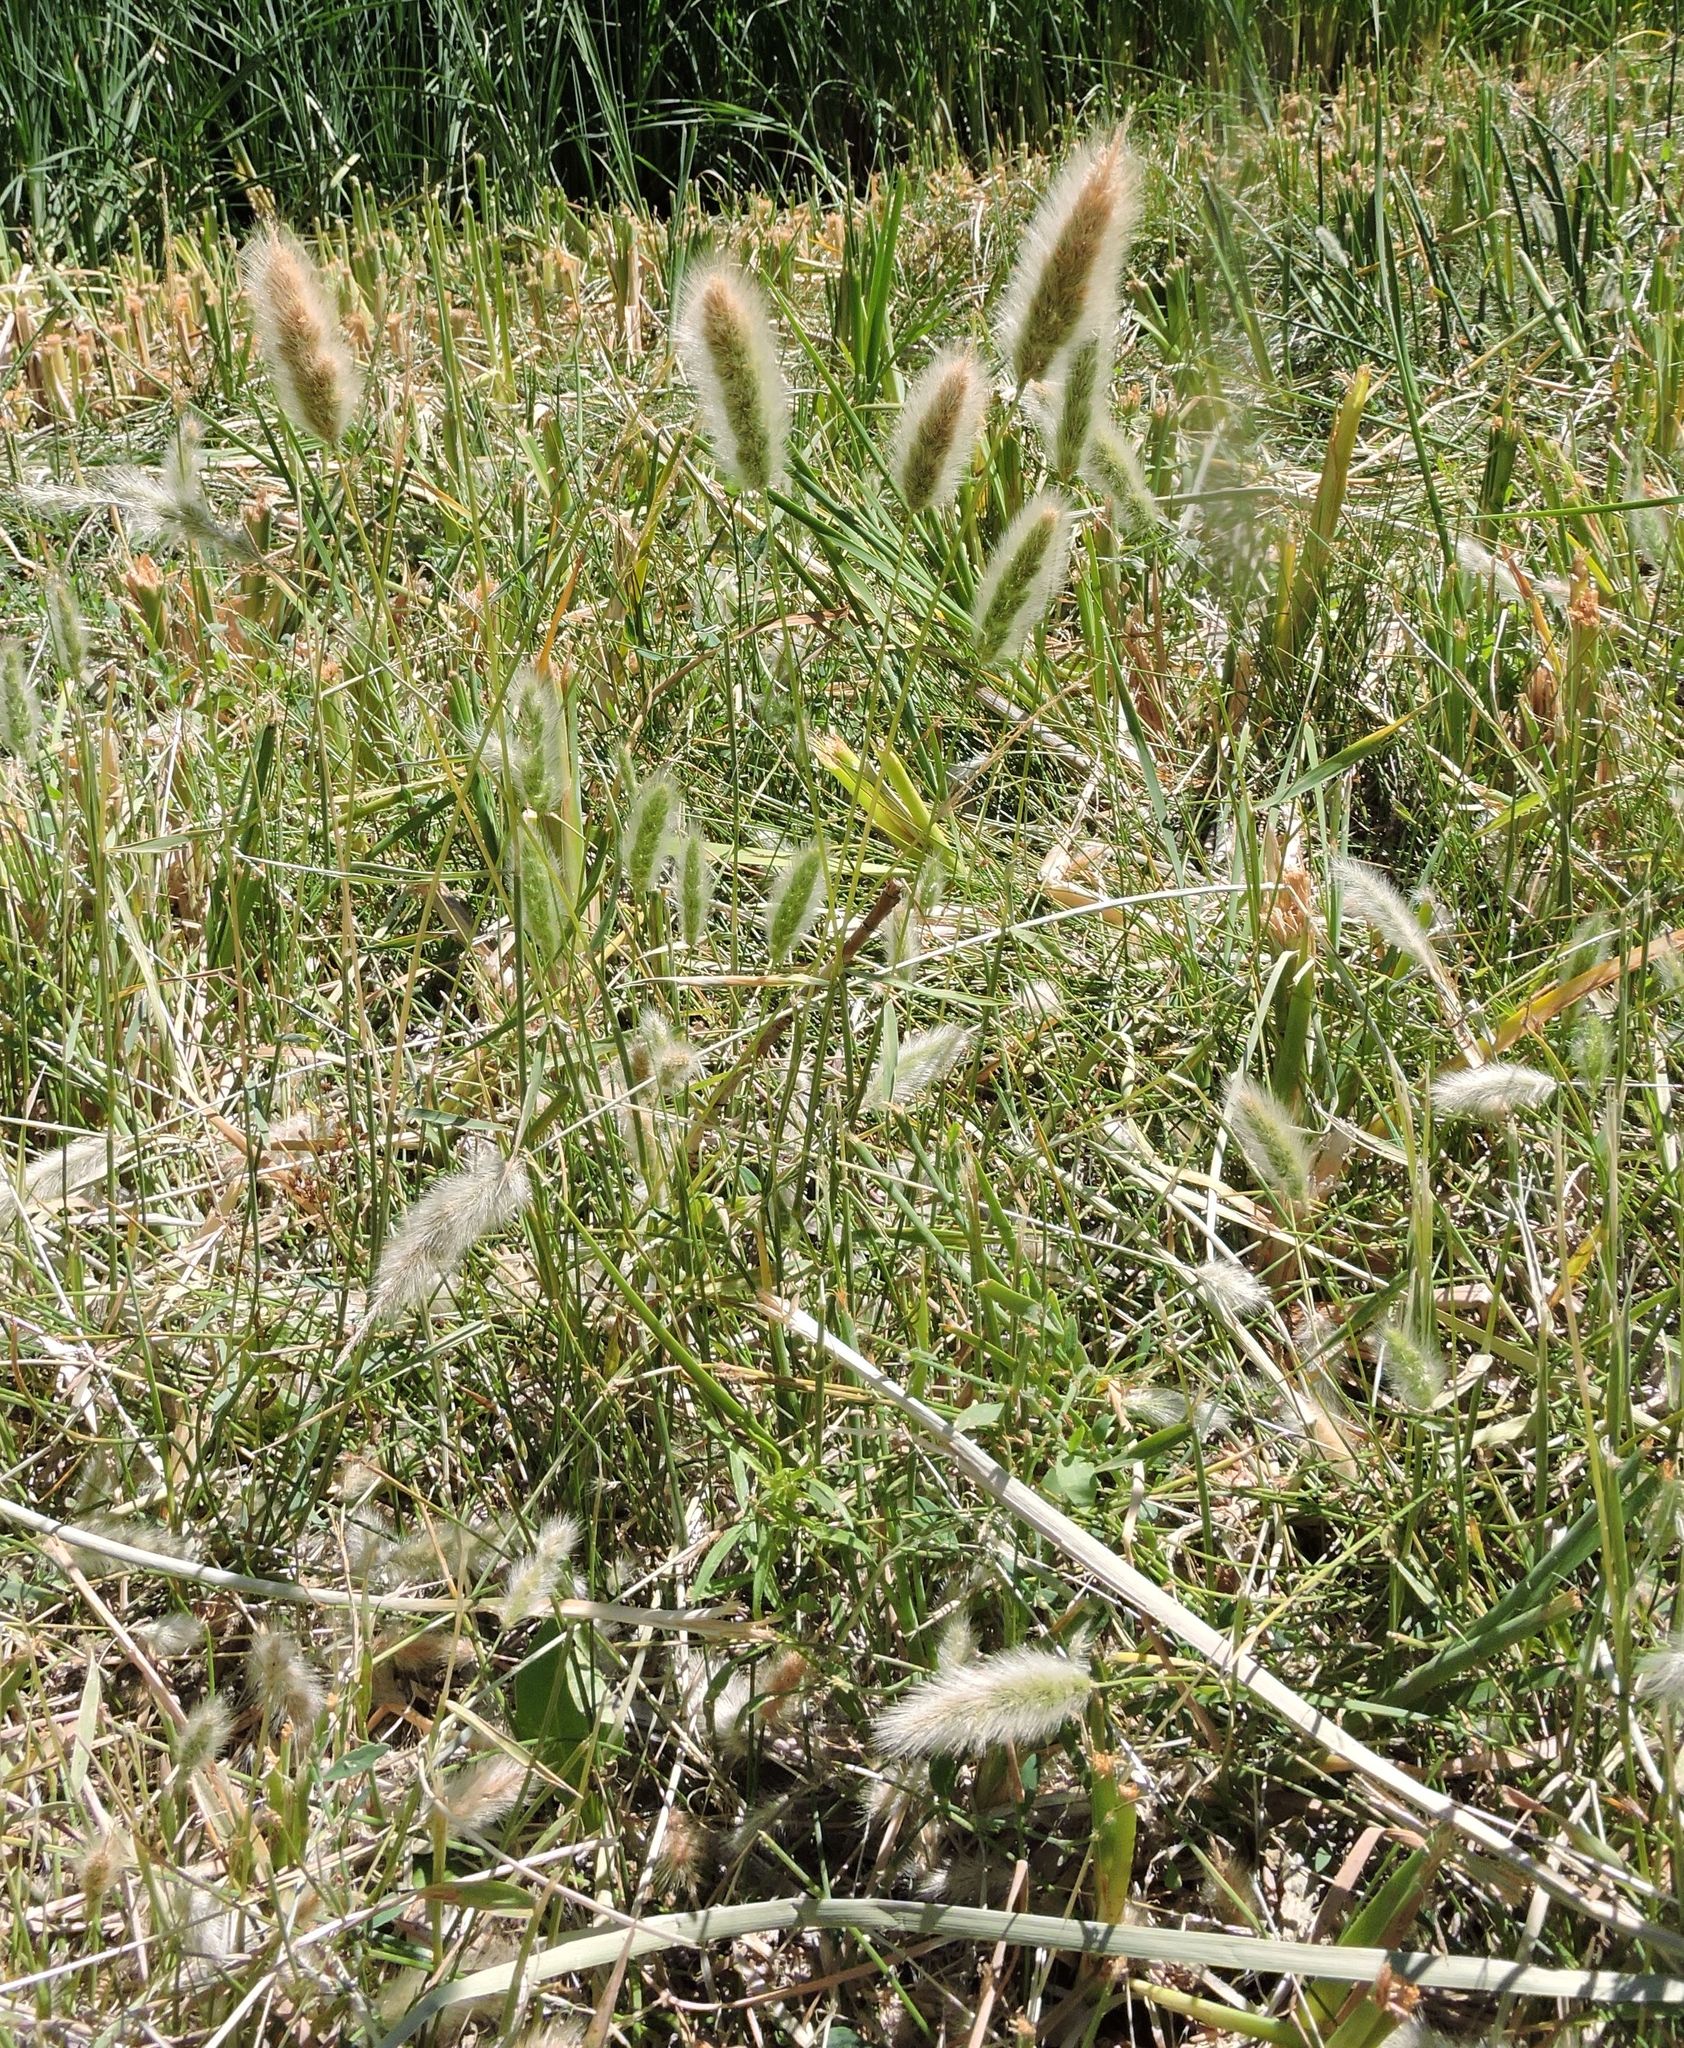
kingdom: Plantae
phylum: Tracheophyta
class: Liliopsida
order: Poales
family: Poaceae
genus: Polypogon
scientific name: Polypogon monspeliensis
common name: Annual rabbitsfoot grass
